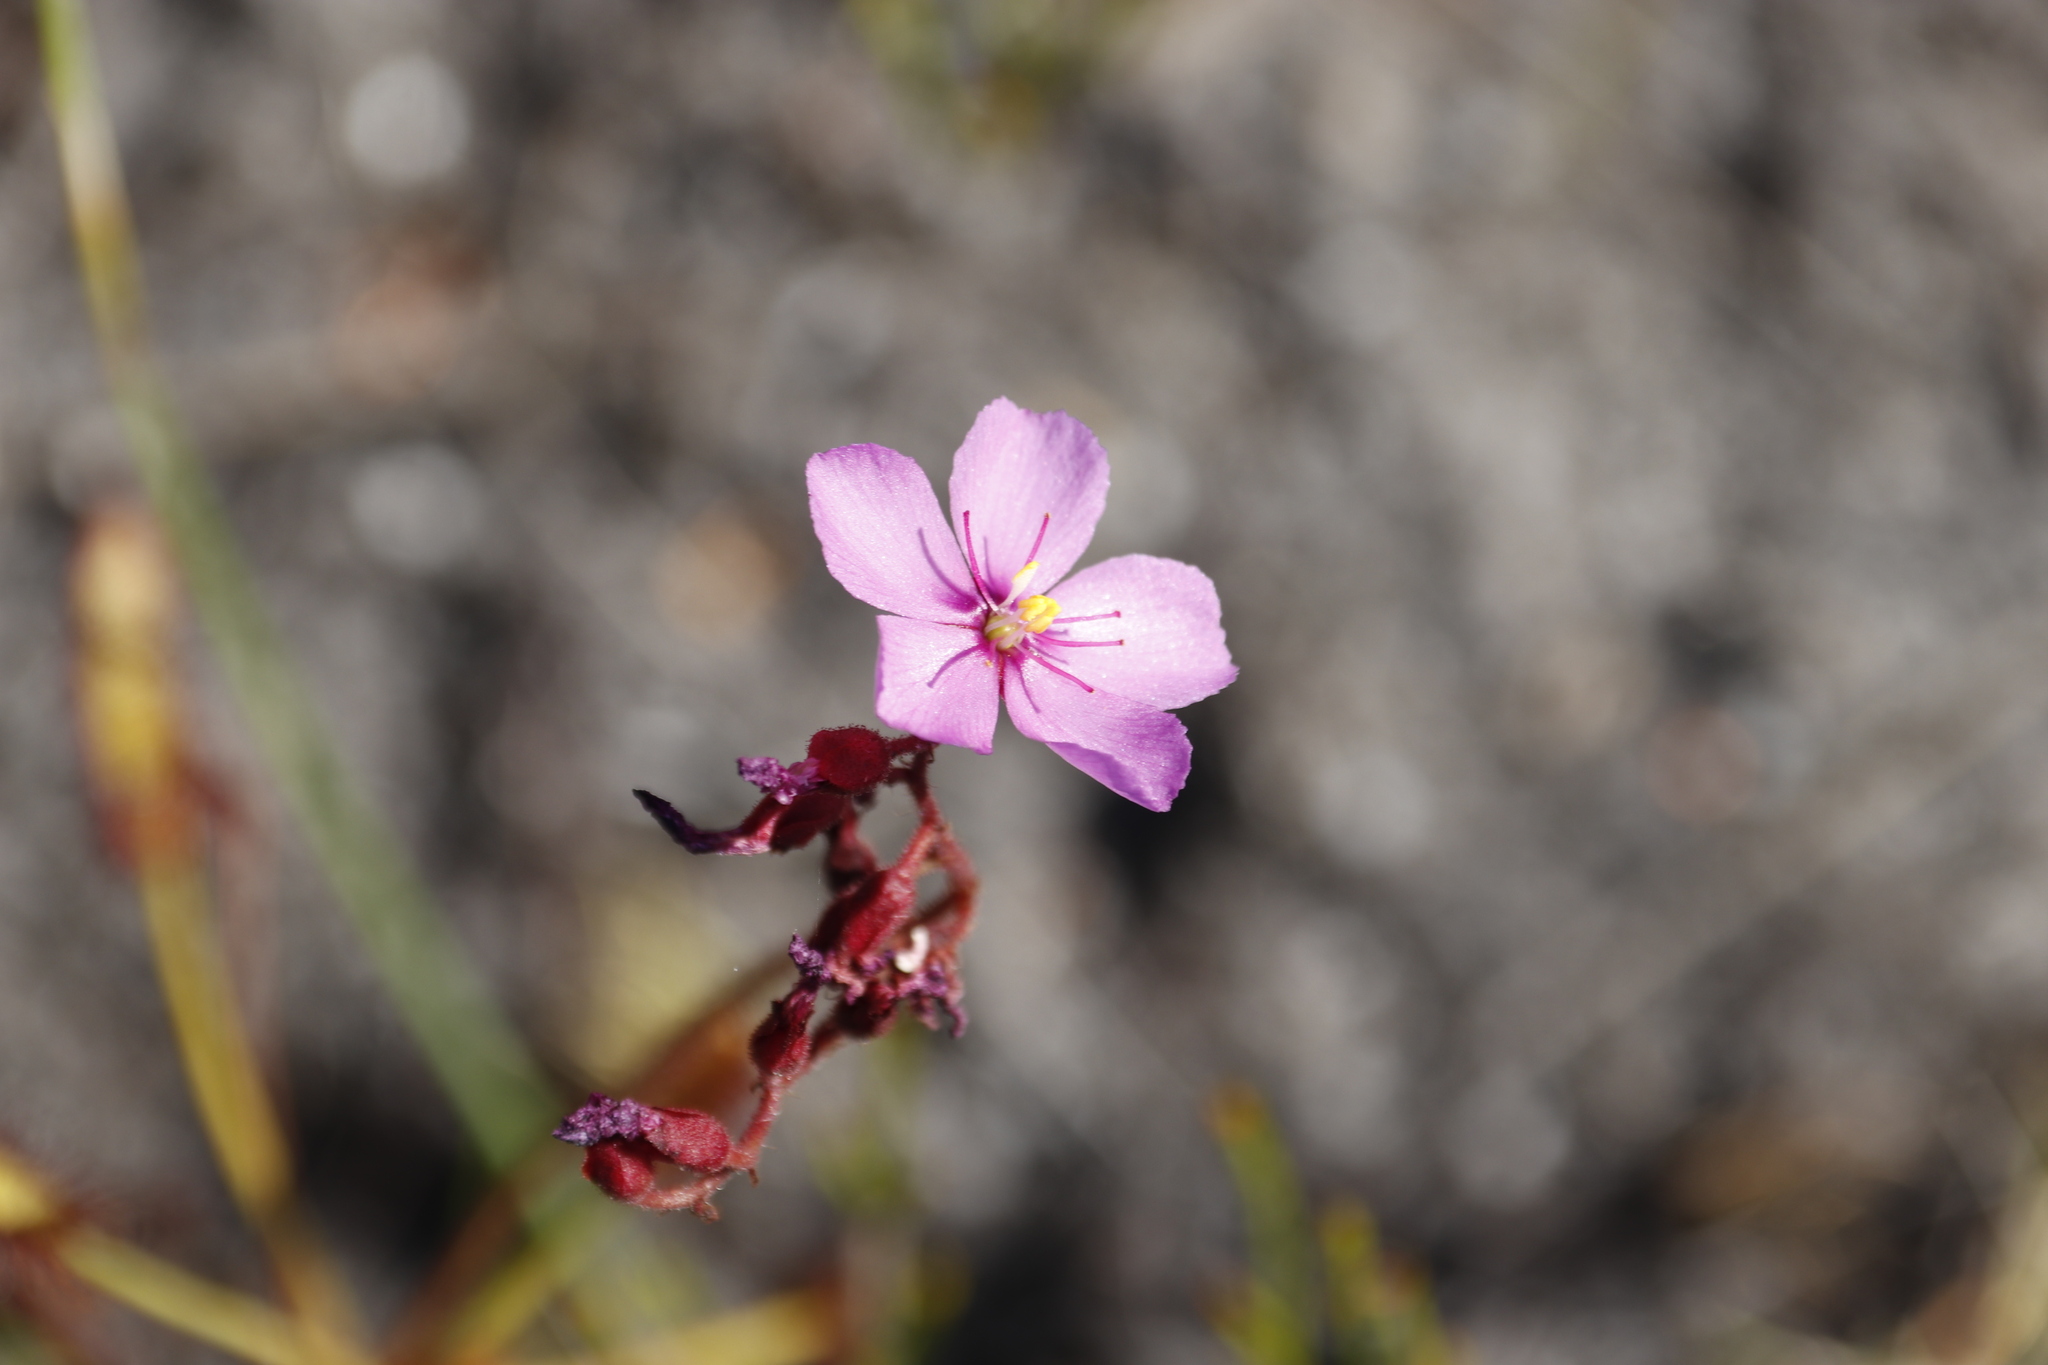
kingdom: Plantae
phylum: Tracheophyta
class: Magnoliopsida
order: Caryophyllales
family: Droseraceae
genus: Drosera
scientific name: Drosera ramentacea
